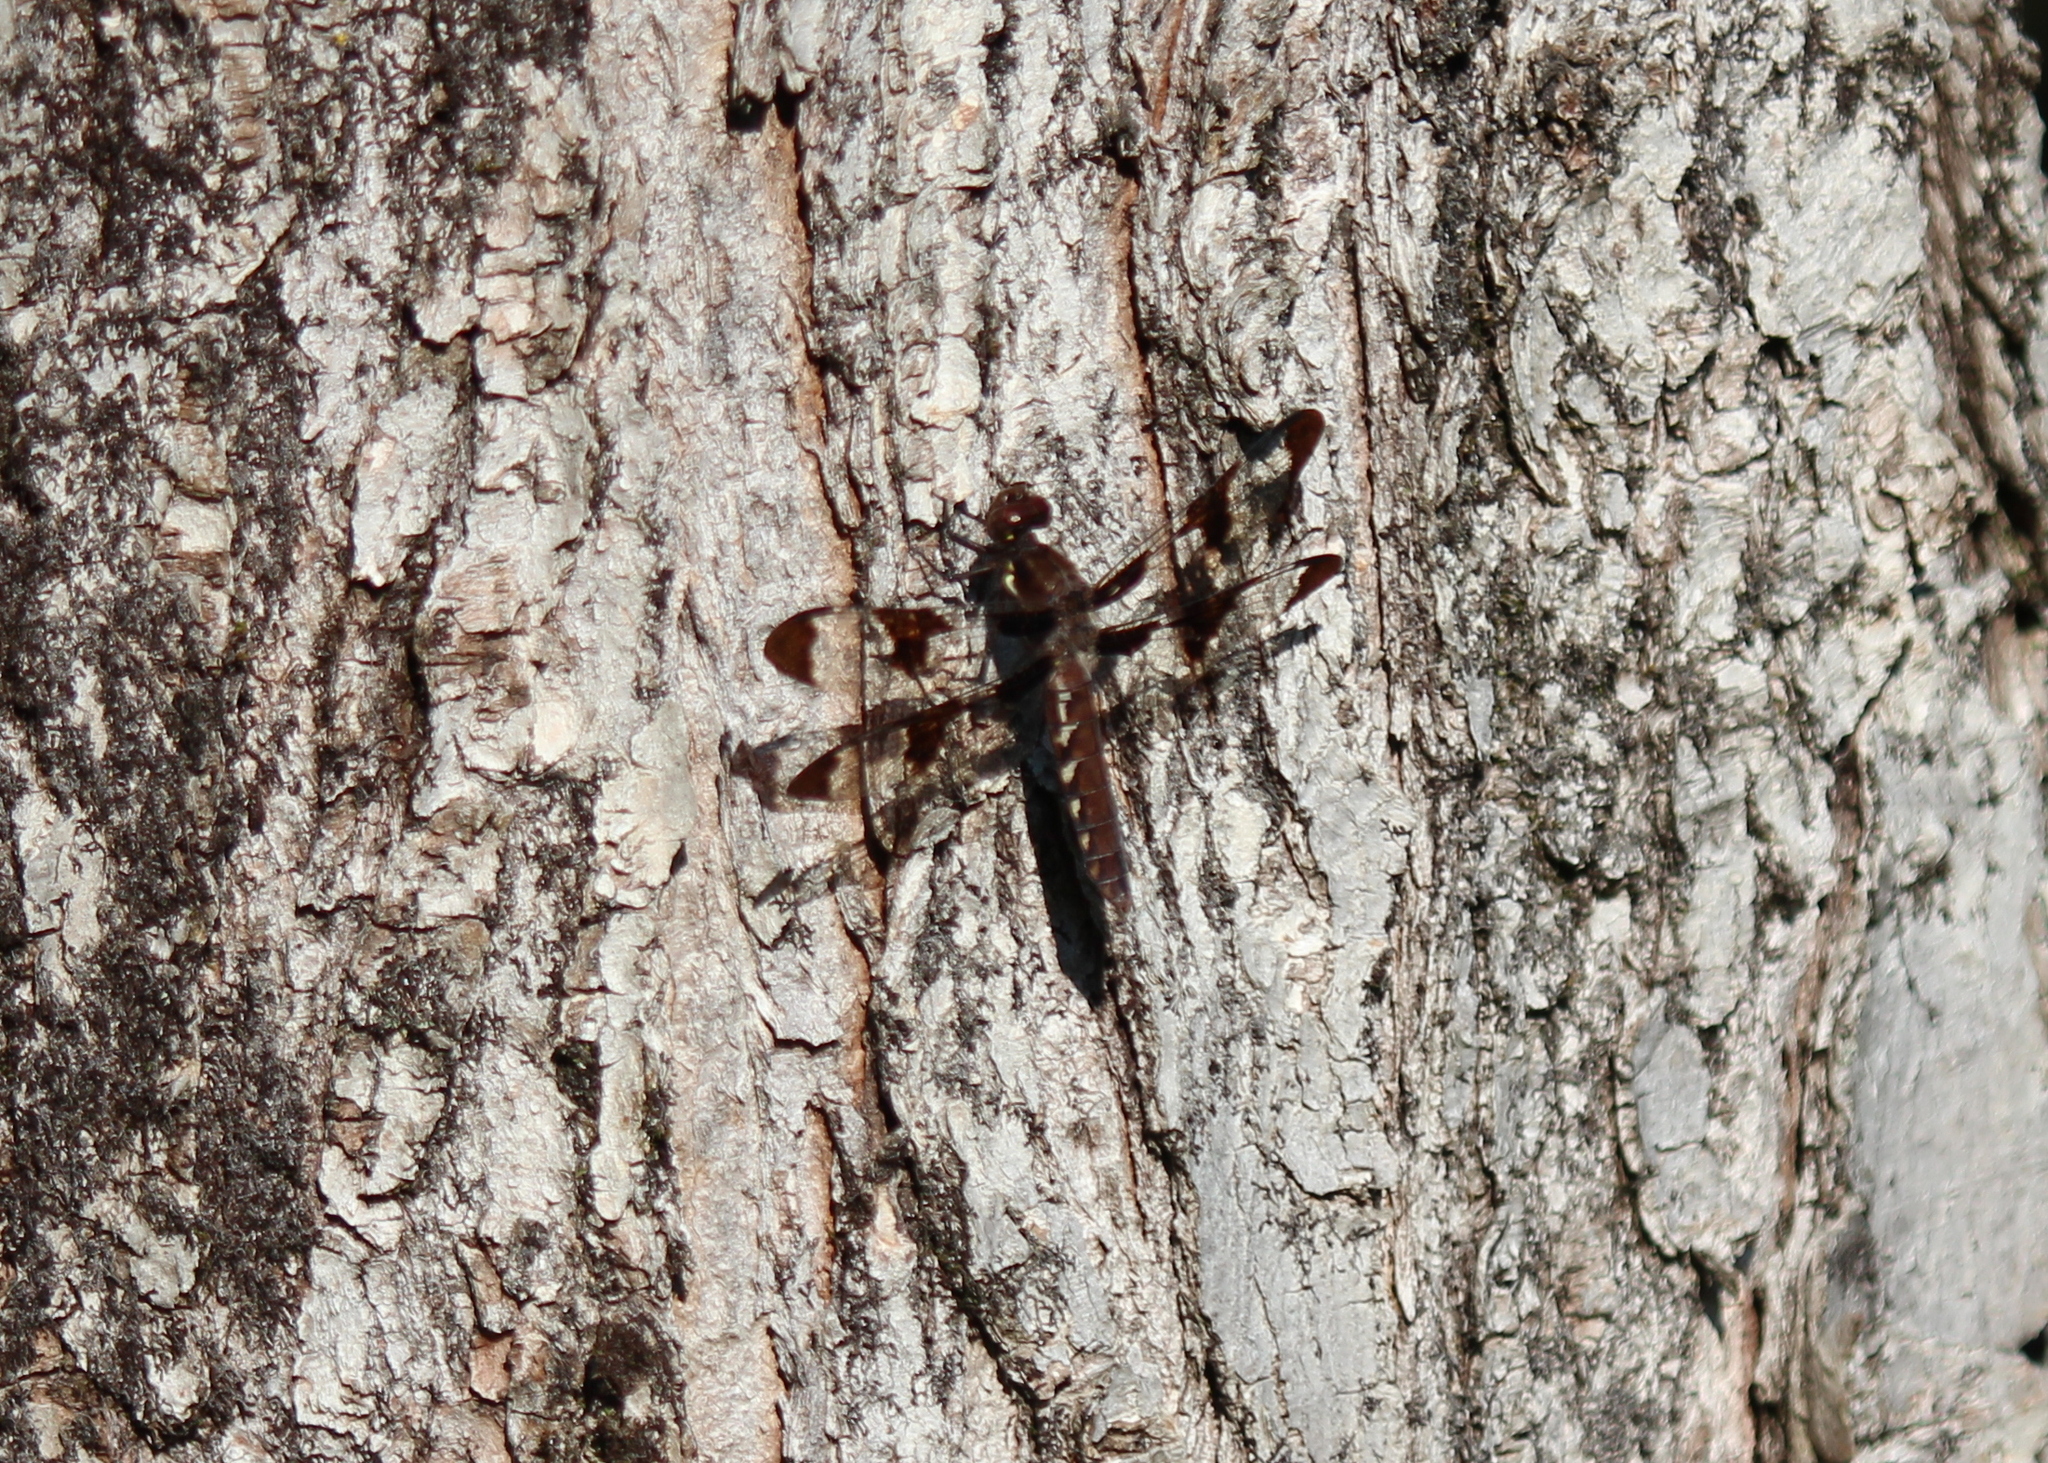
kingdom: Animalia
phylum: Arthropoda
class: Insecta
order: Odonata
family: Libellulidae
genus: Plathemis
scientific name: Plathemis lydia
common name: Common whitetail
